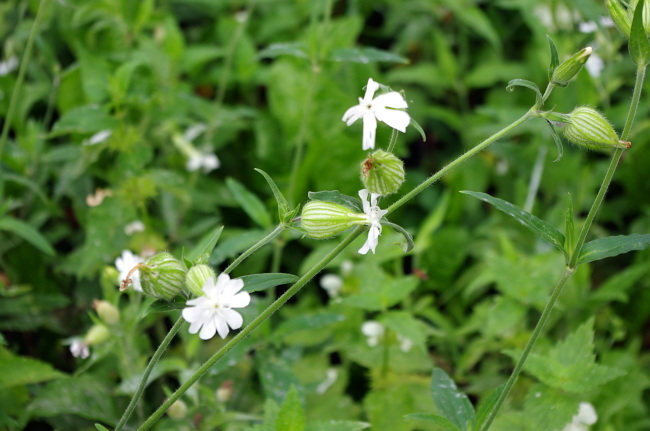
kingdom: Plantae
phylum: Tracheophyta
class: Magnoliopsida
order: Caryophyllales
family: Caryophyllaceae
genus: Silene
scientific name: Silene latifolia
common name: White campion
